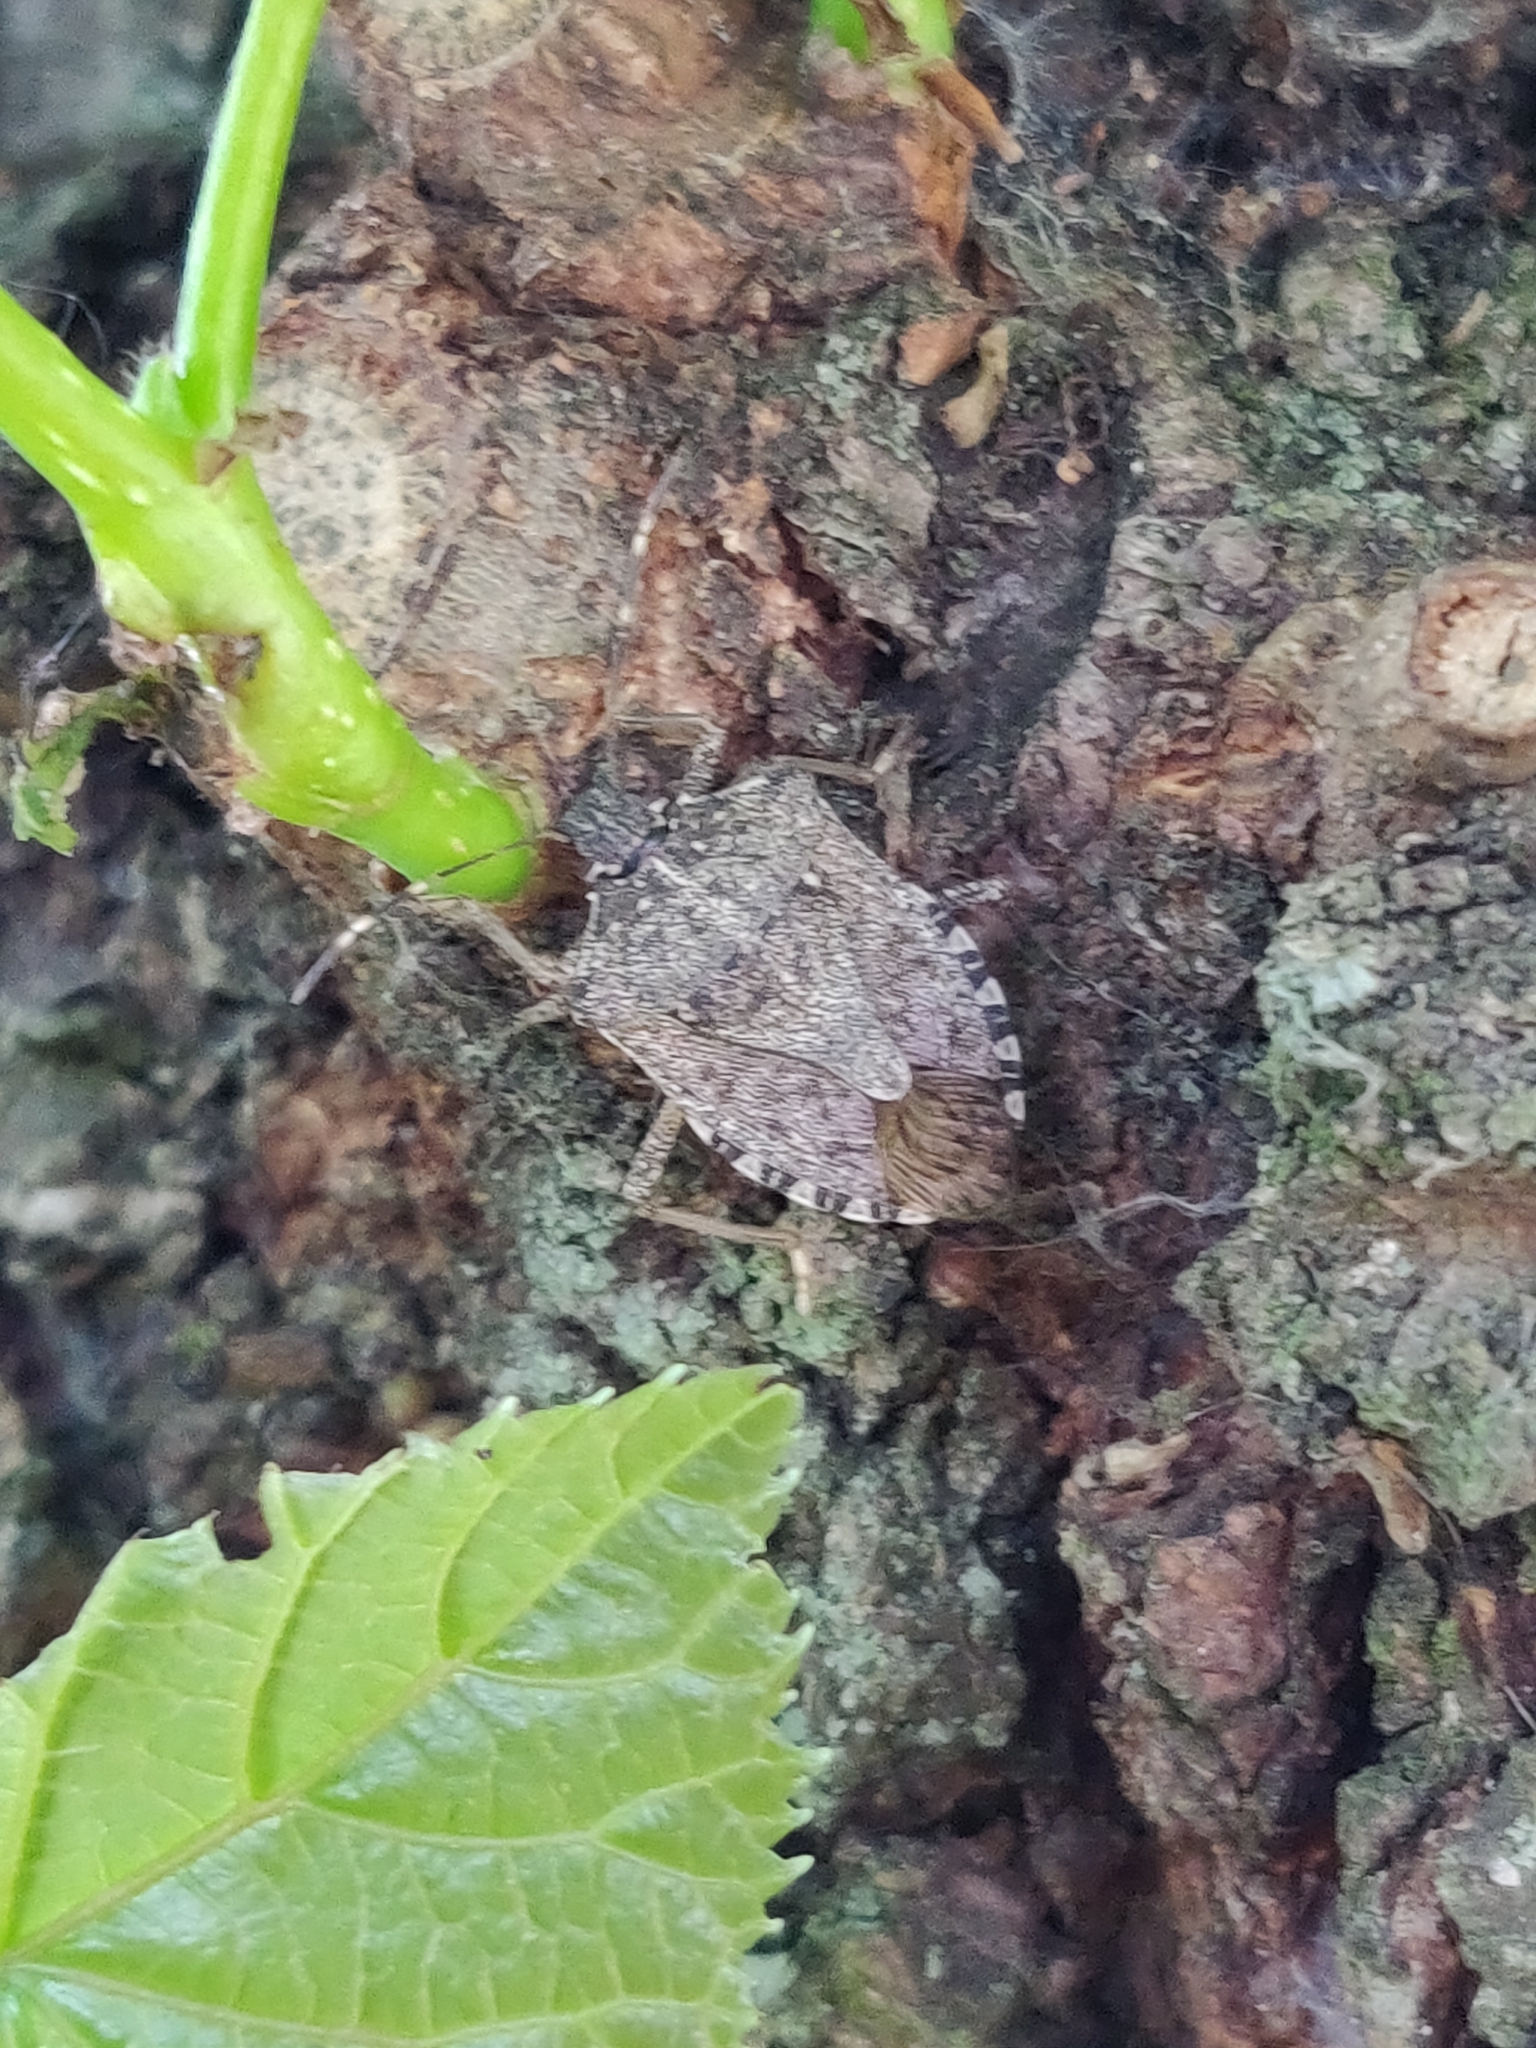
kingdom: Animalia
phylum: Arthropoda
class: Insecta
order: Hemiptera
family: Pentatomidae
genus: Halyomorpha
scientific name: Halyomorpha halys
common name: Brown marmorated stink bug
